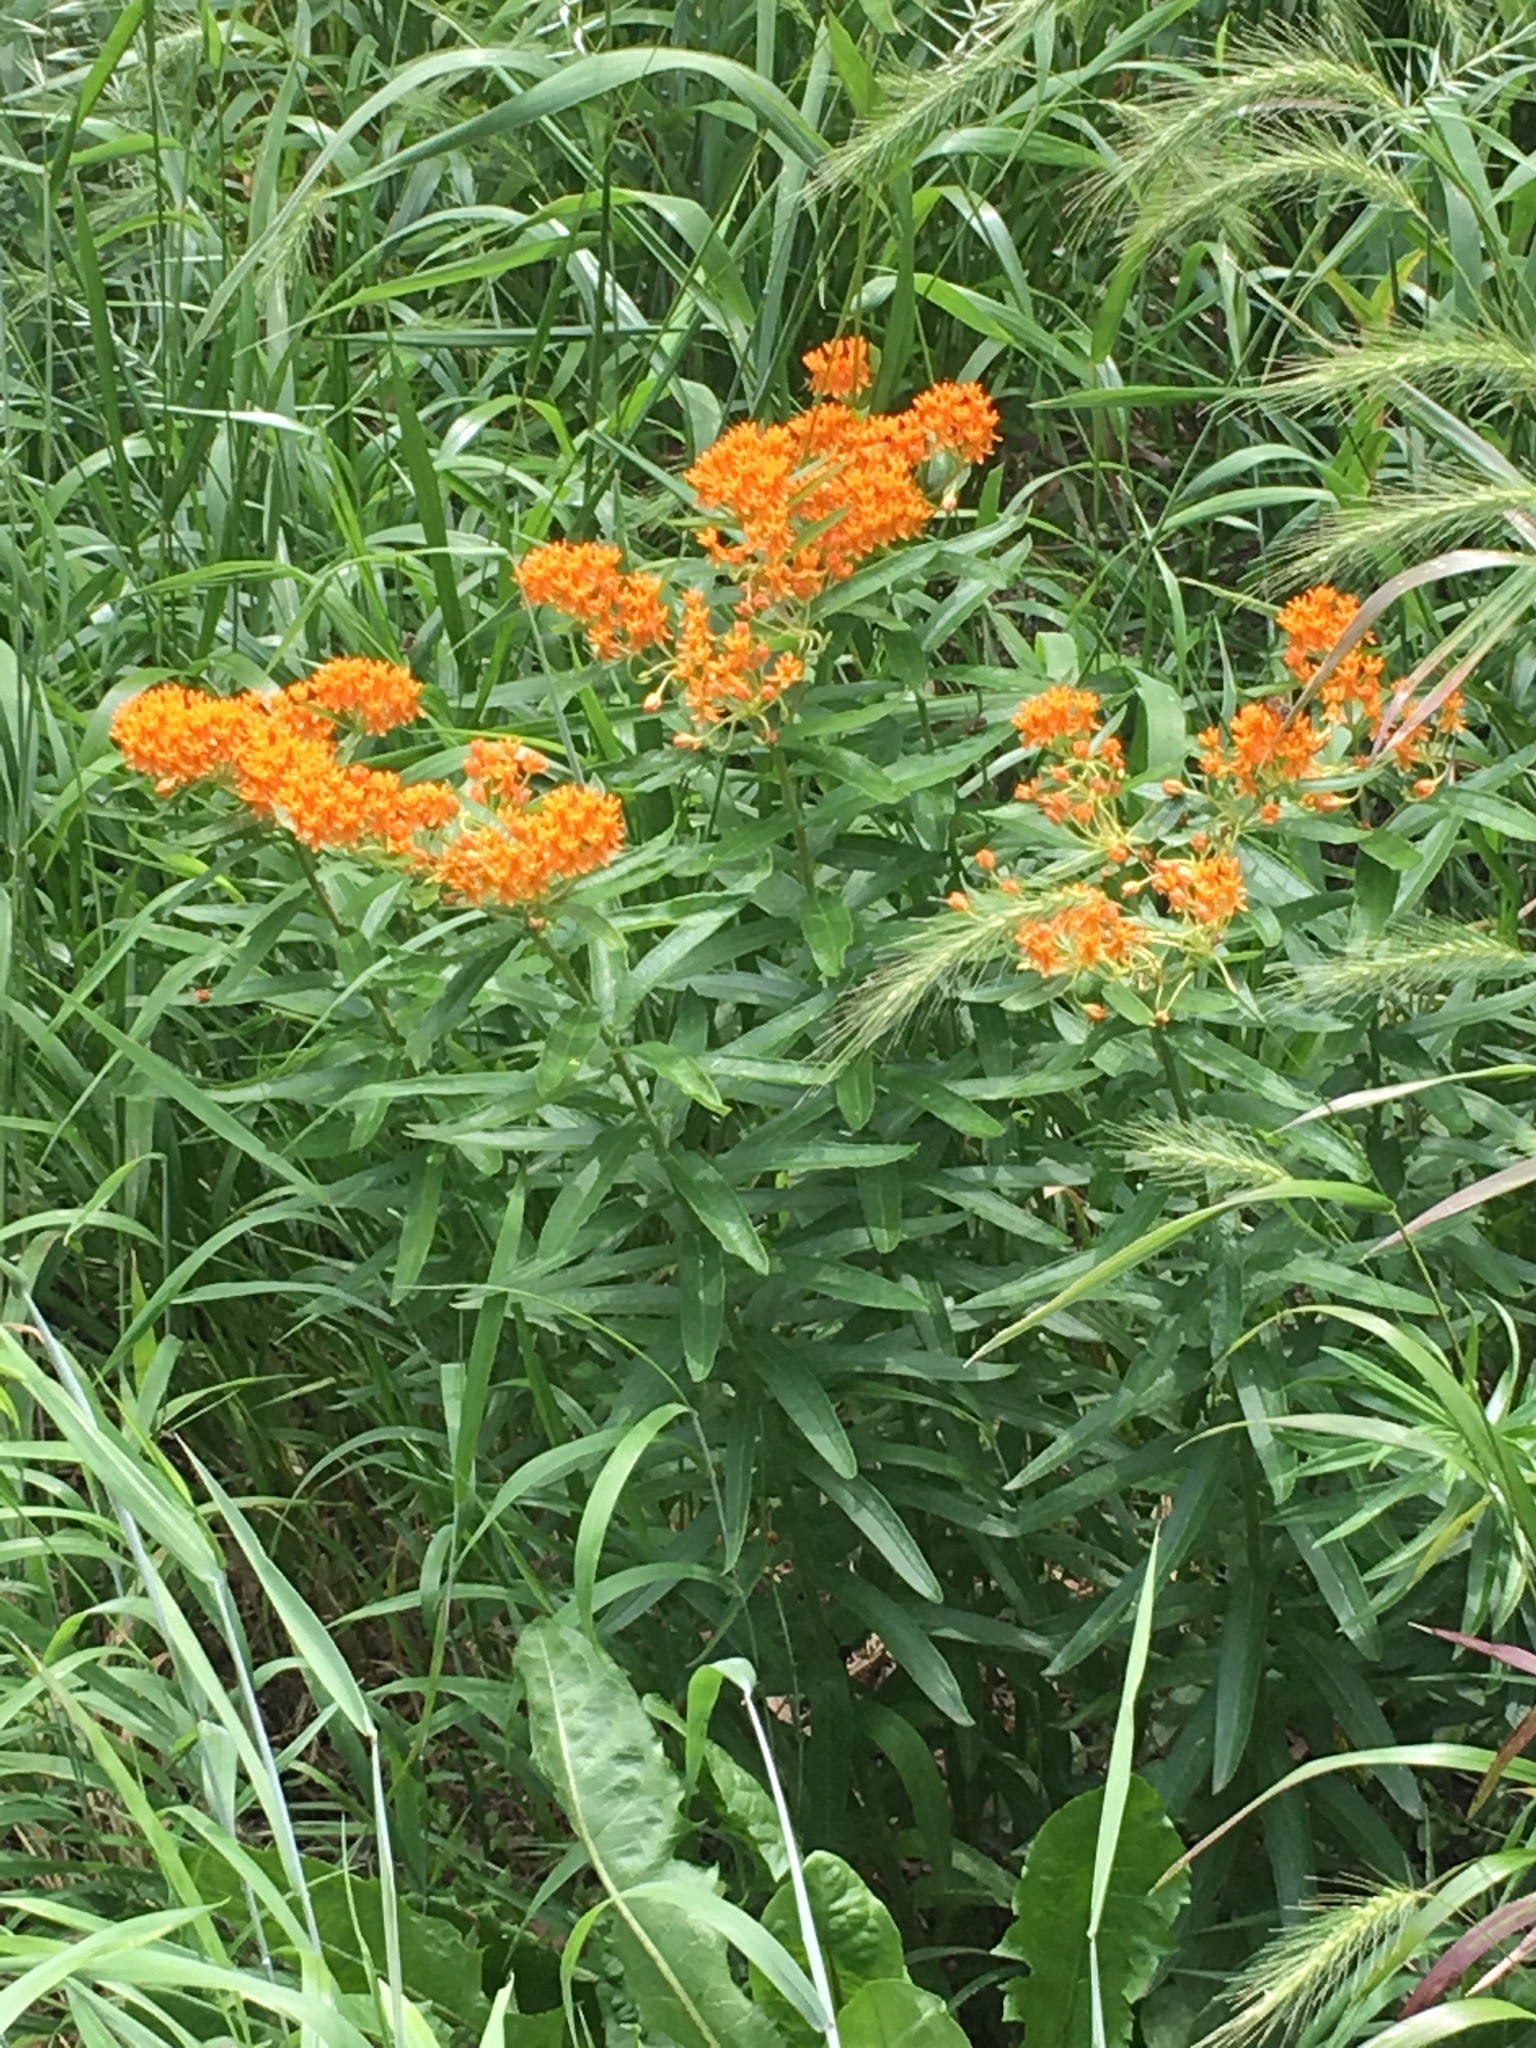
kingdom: Plantae
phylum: Tracheophyta
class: Magnoliopsida
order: Gentianales
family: Apocynaceae
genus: Asclepias
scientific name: Asclepias tuberosa
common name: Butterfly milkweed
